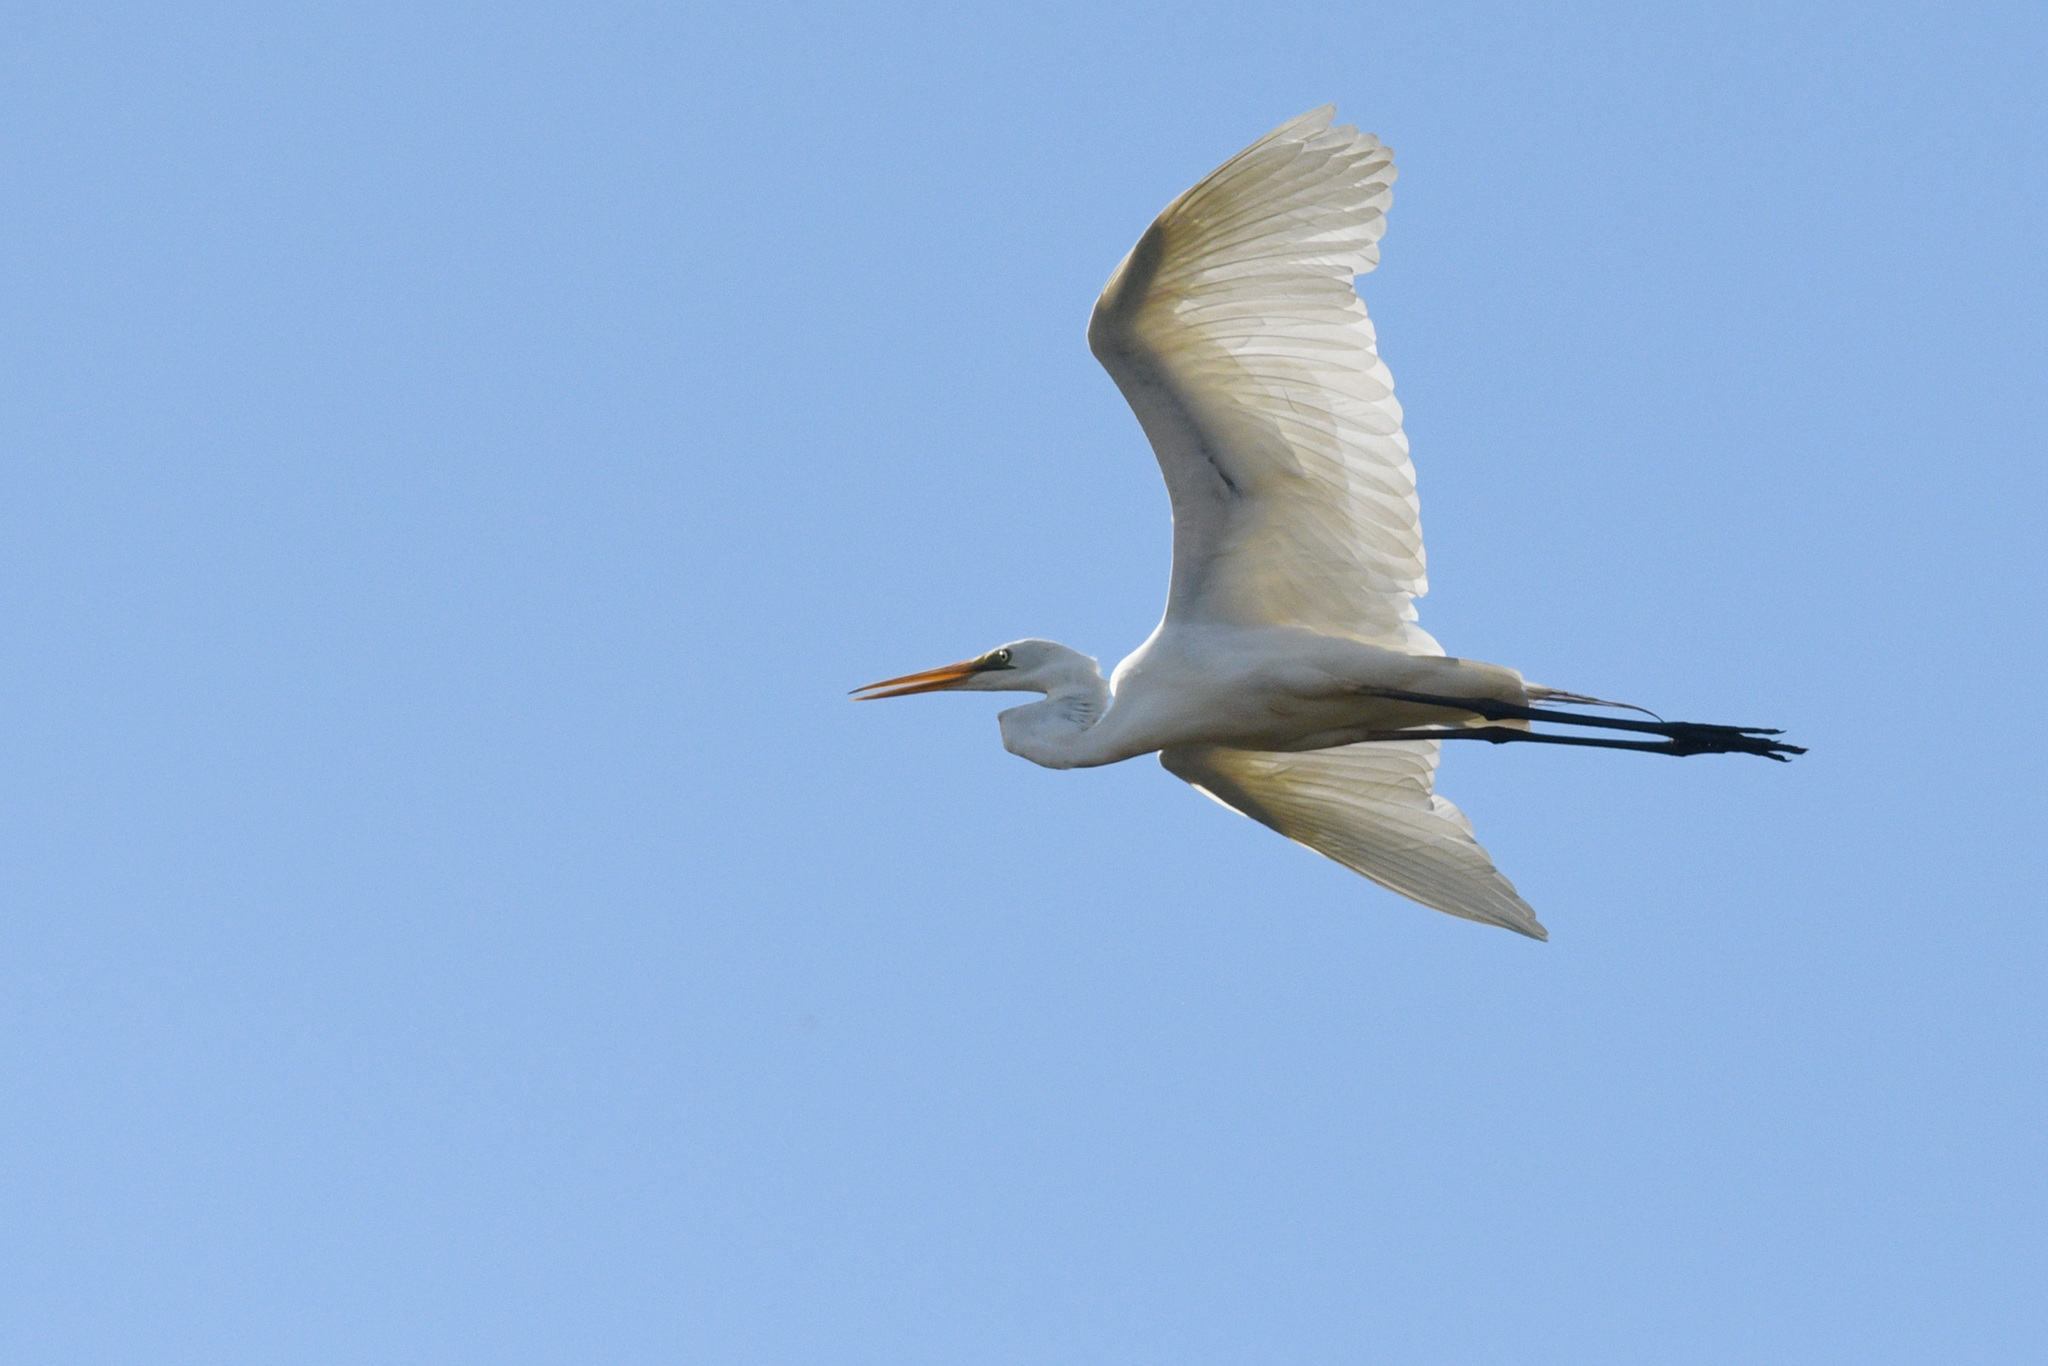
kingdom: Animalia
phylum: Chordata
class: Aves
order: Pelecaniformes
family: Ardeidae
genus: Ardea
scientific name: Ardea alba
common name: Great egret
